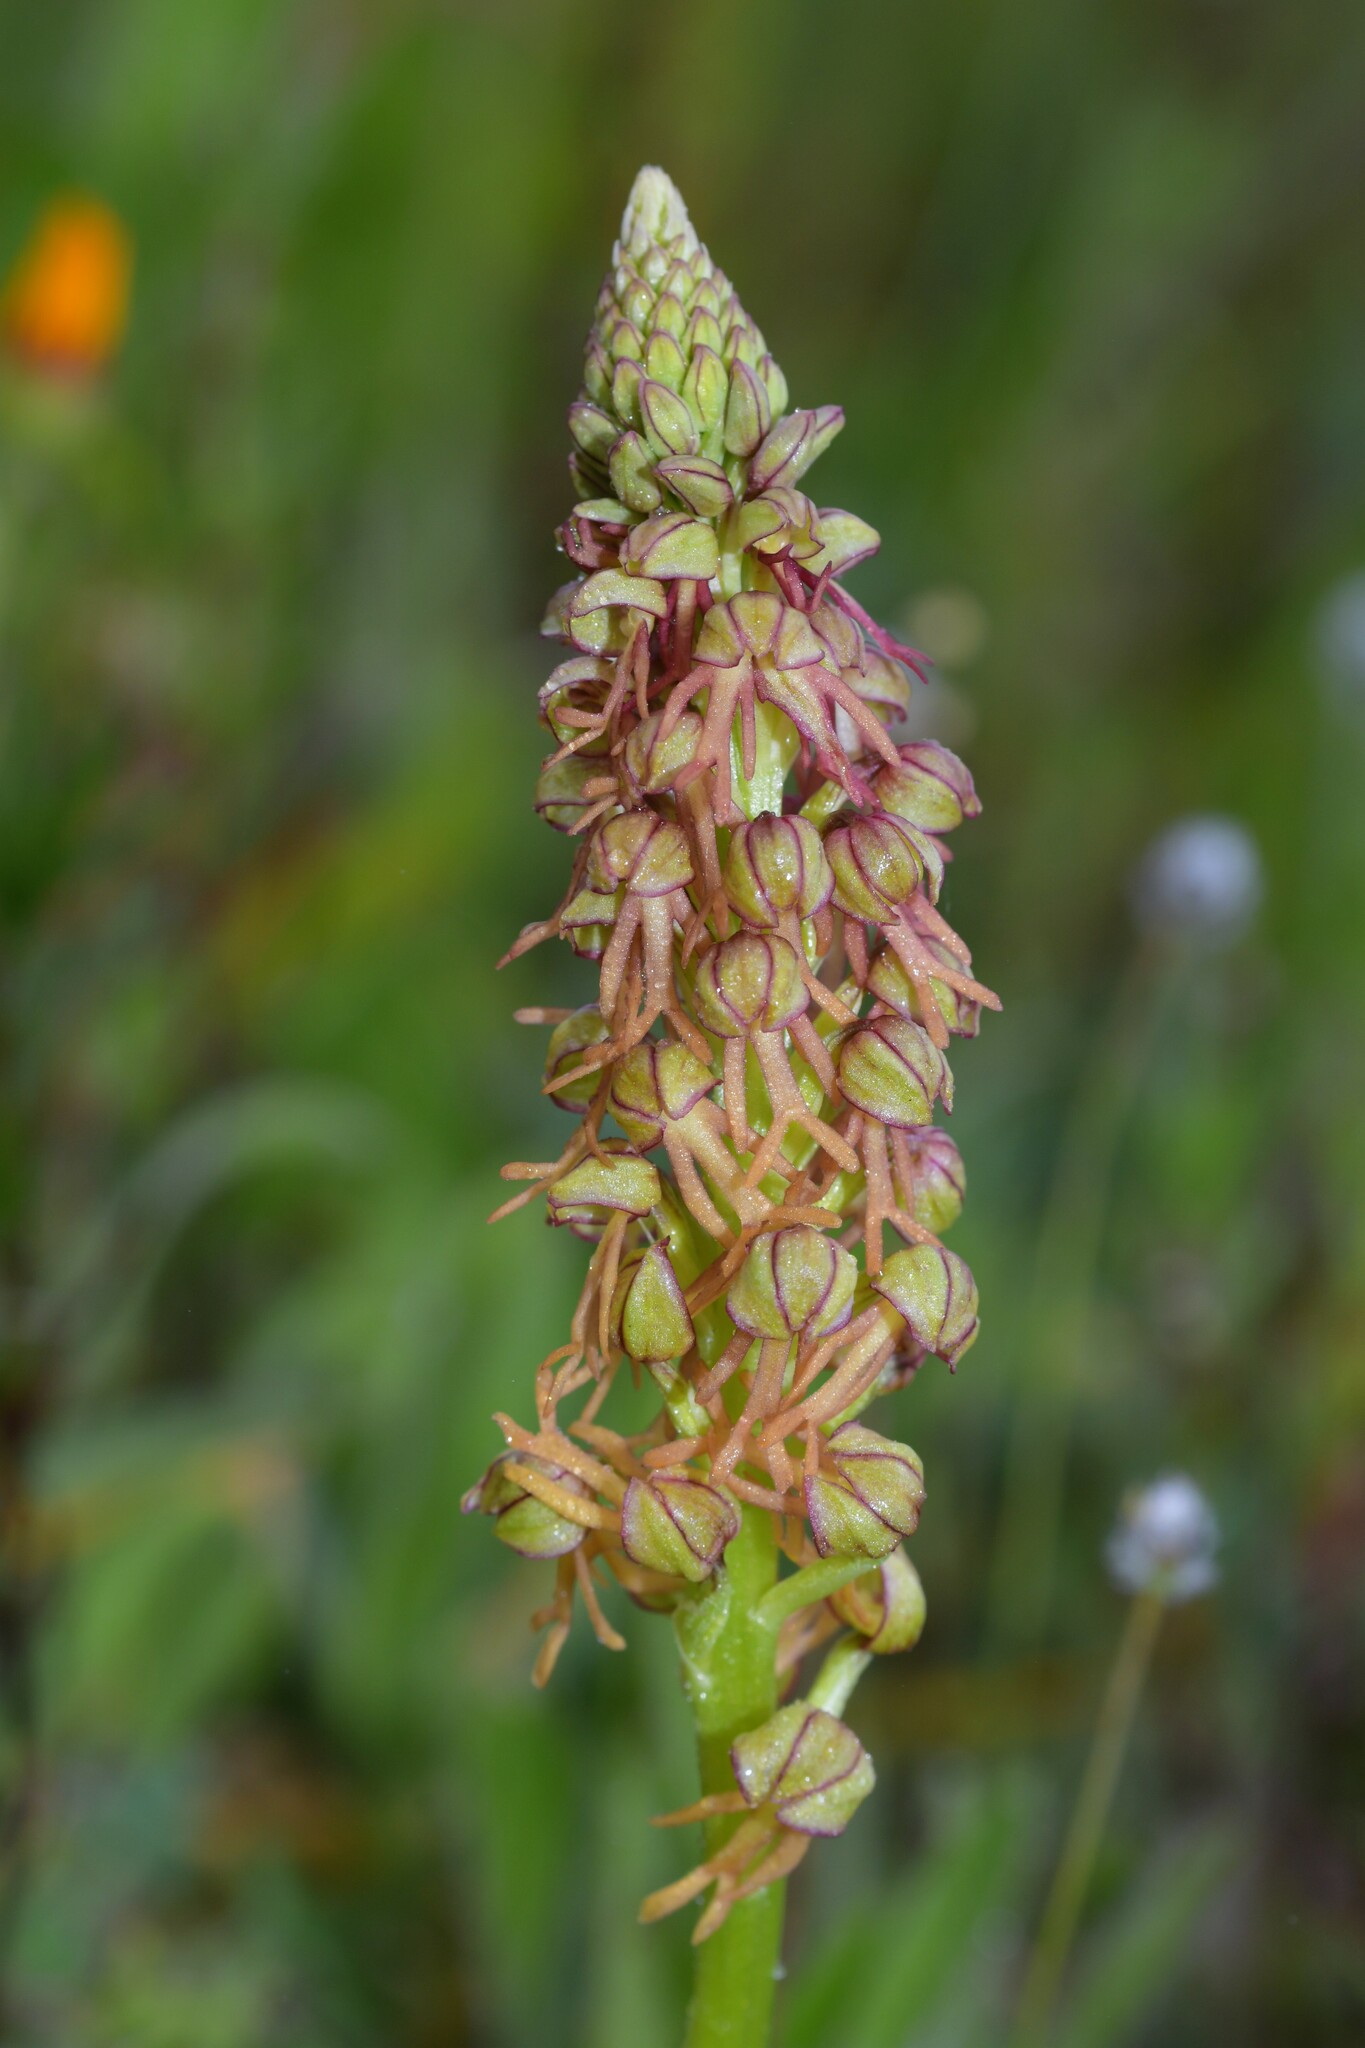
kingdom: Plantae
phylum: Tracheophyta
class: Liliopsida
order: Asparagales
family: Orchidaceae
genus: Orchis
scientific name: Orchis anthropophora
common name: Man orchid
